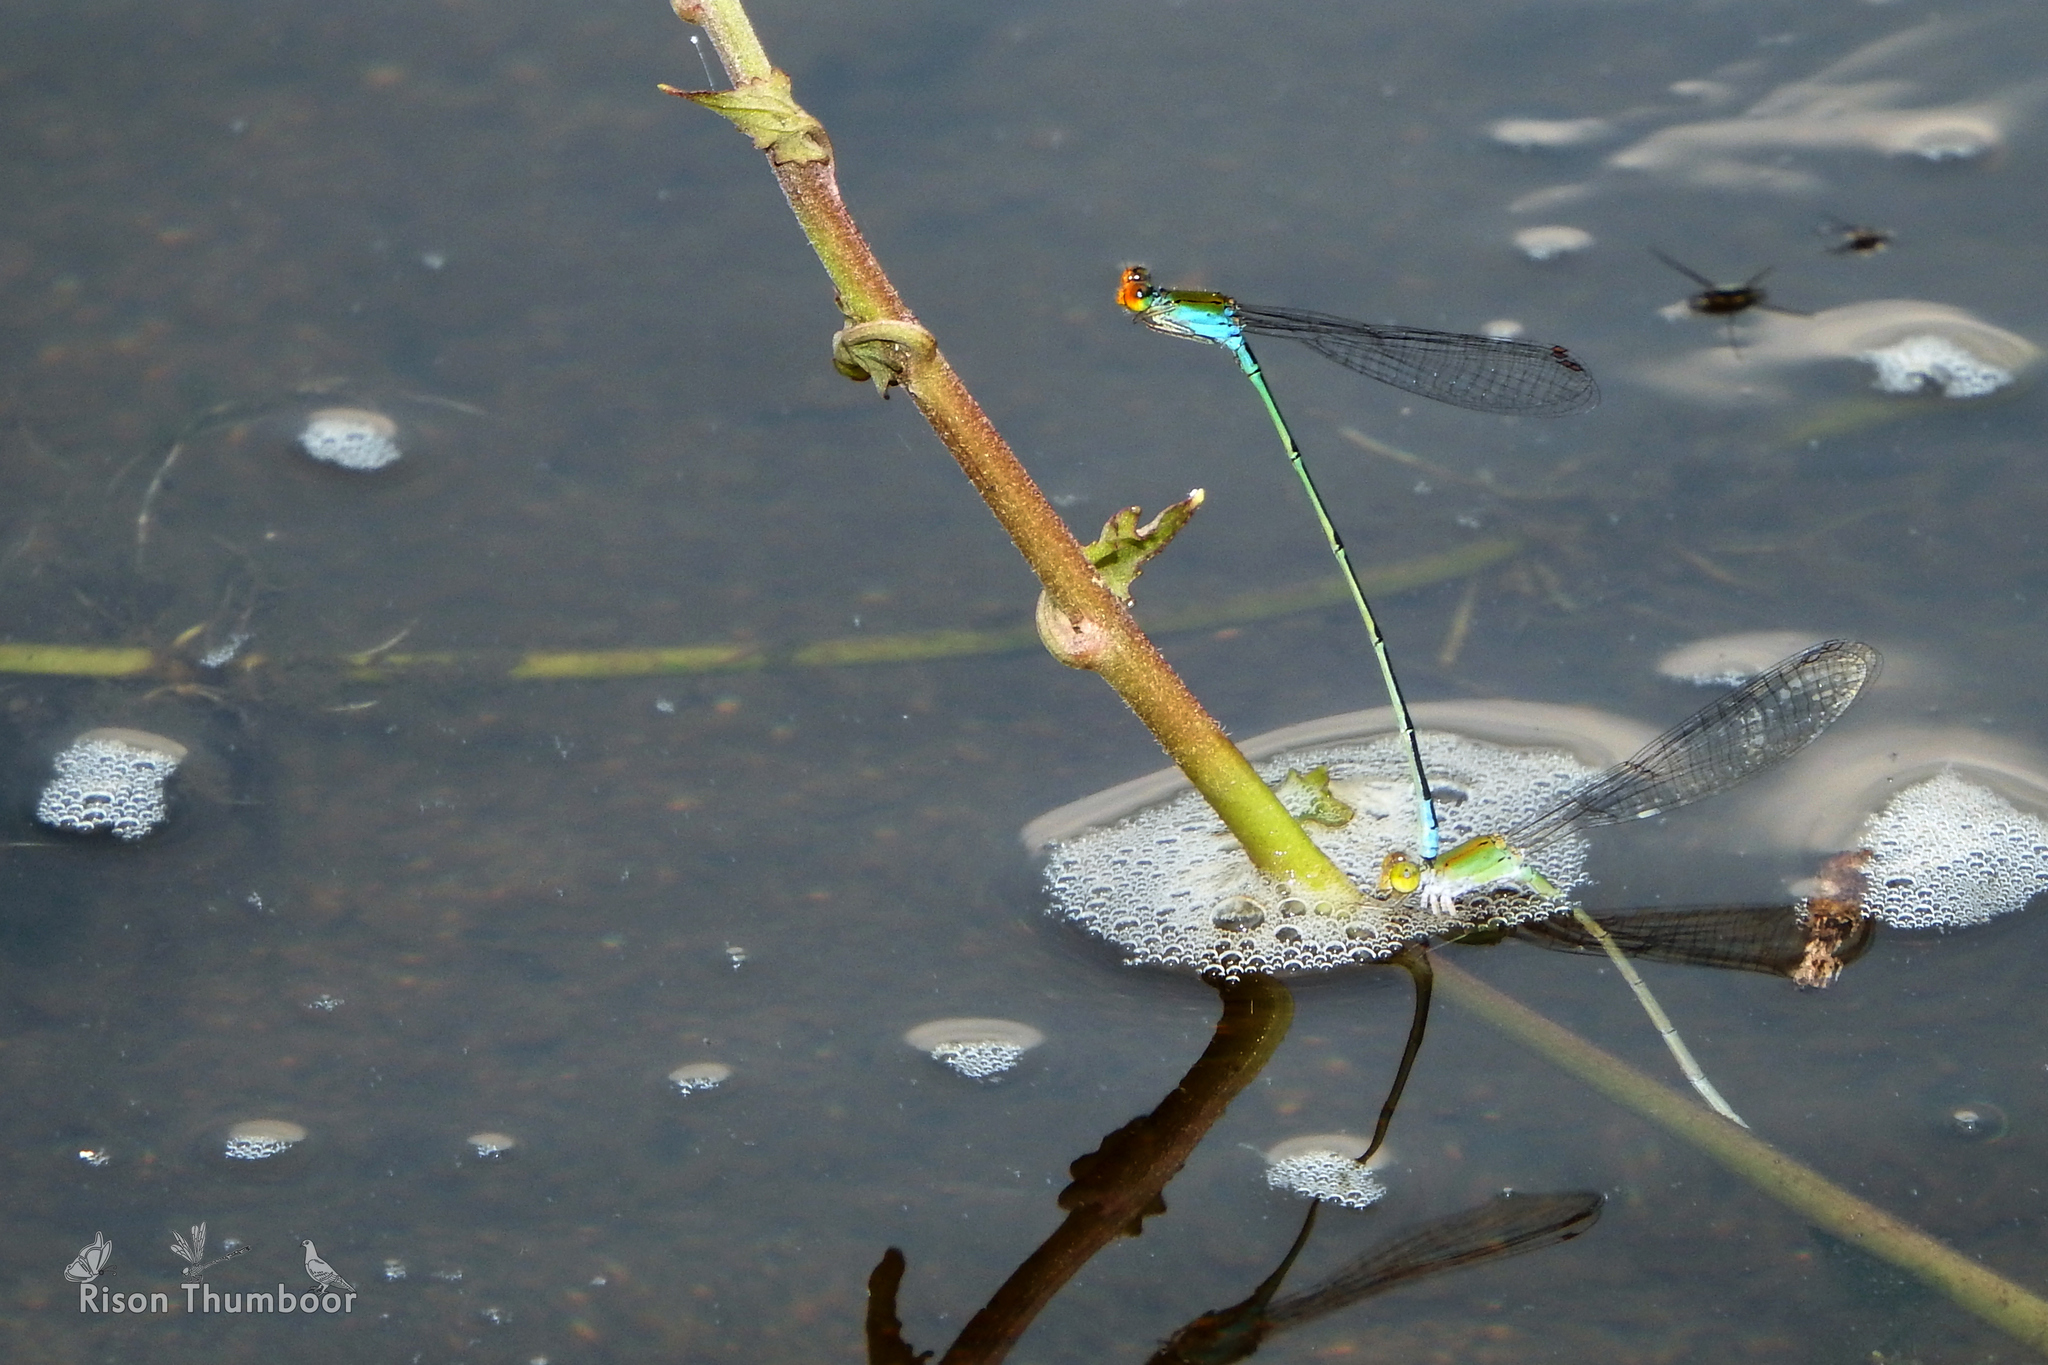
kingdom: Animalia
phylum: Arthropoda
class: Insecta
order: Odonata
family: Coenagrionidae
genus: Pseudagrion
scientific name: Pseudagrion rubriceps
